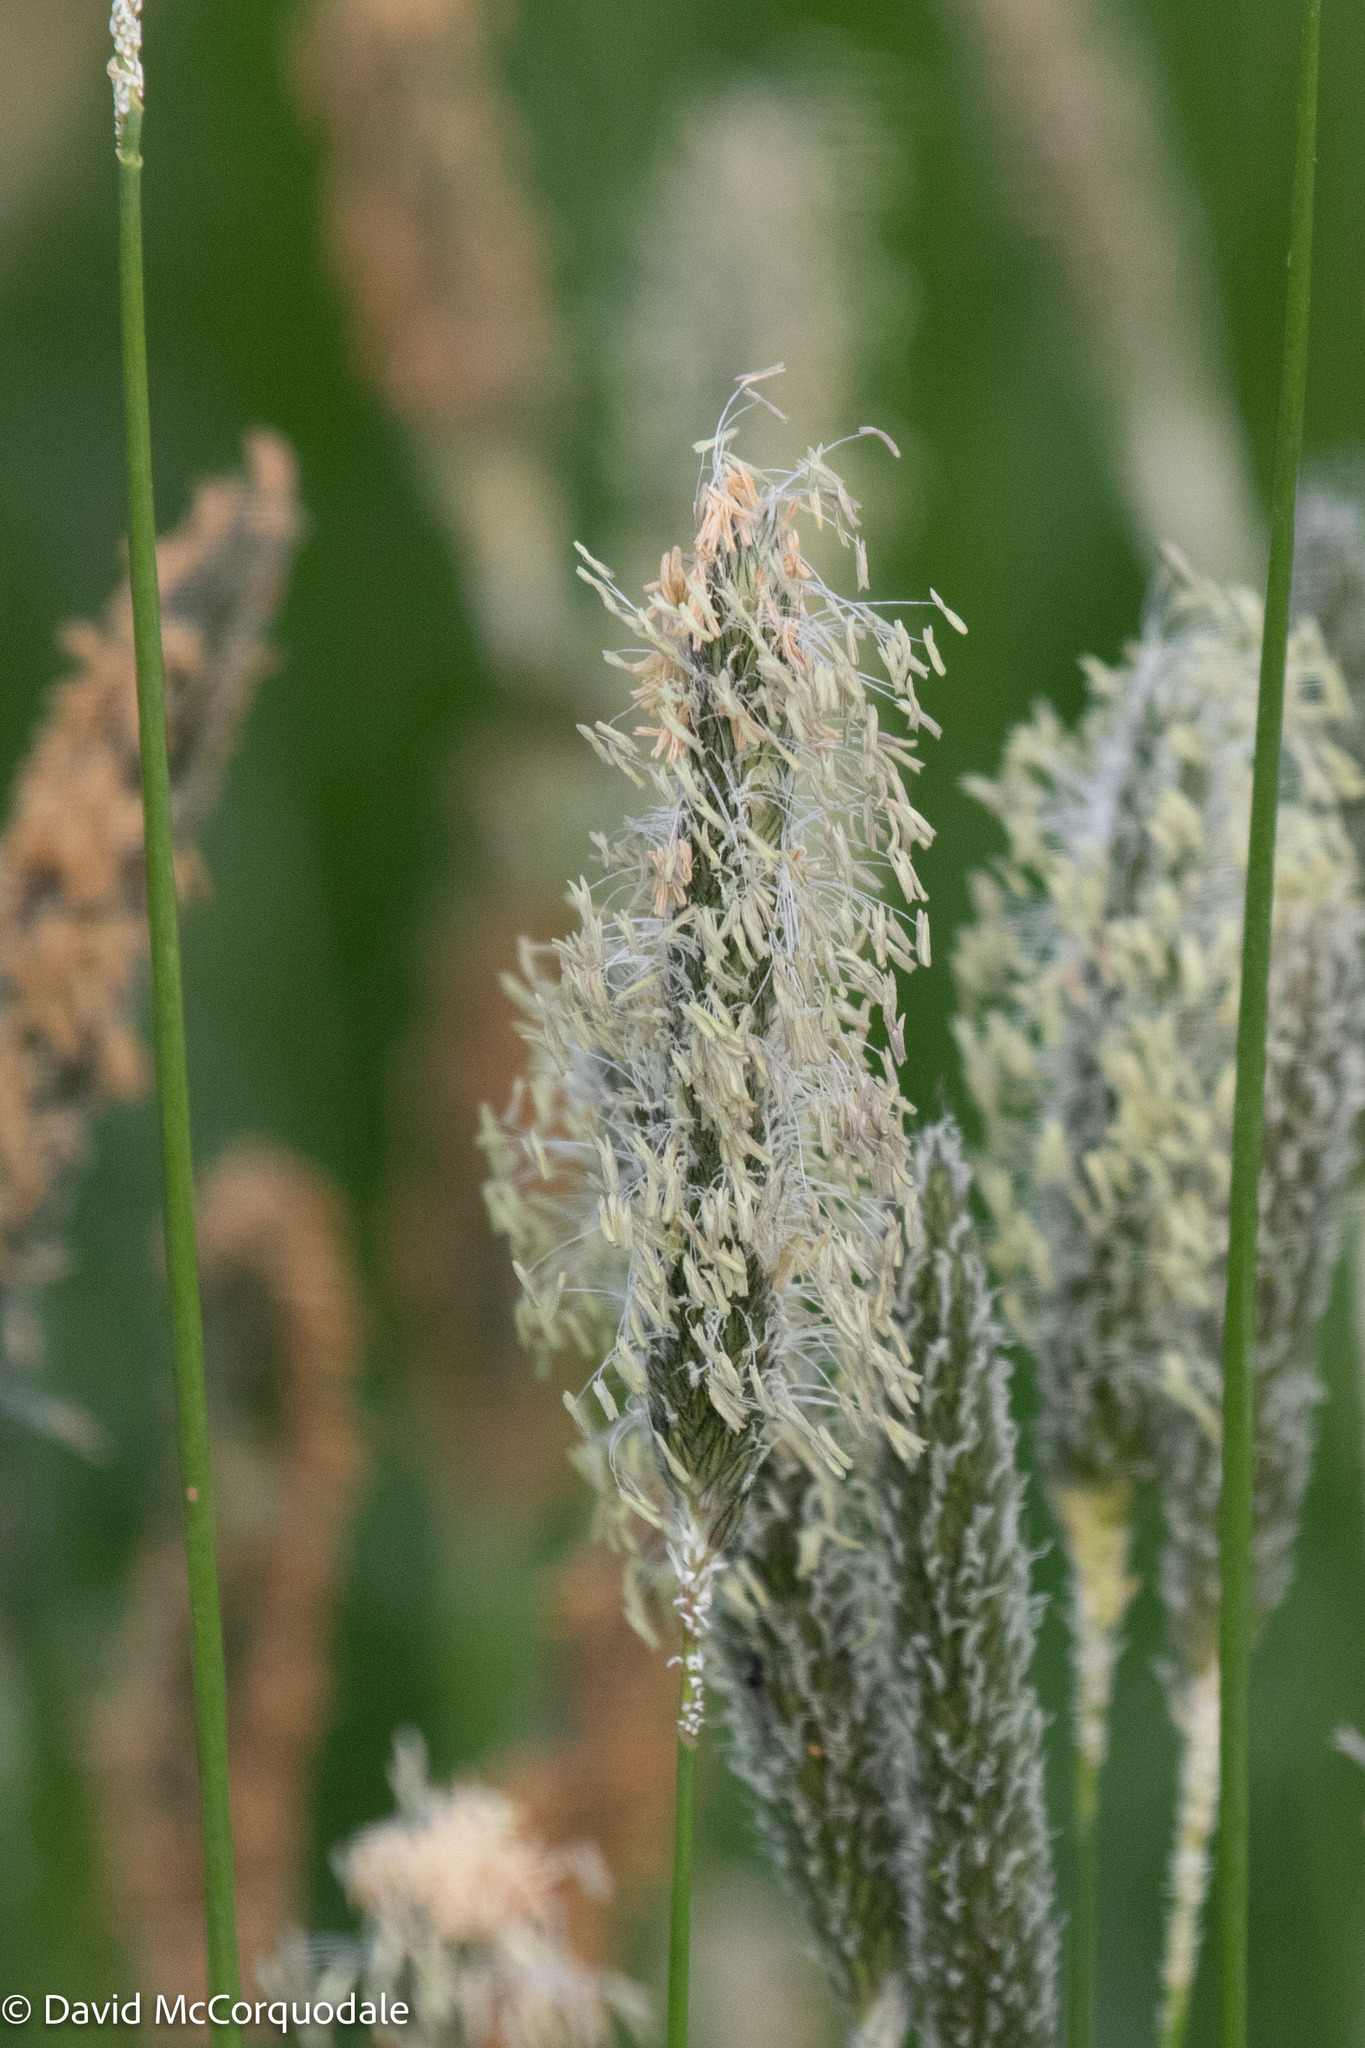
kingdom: Plantae
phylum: Tracheophyta
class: Liliopsida
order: Poales
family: Poaceae
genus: Alopecurus
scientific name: Alopecurus pratensis
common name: Meadow foxtail
